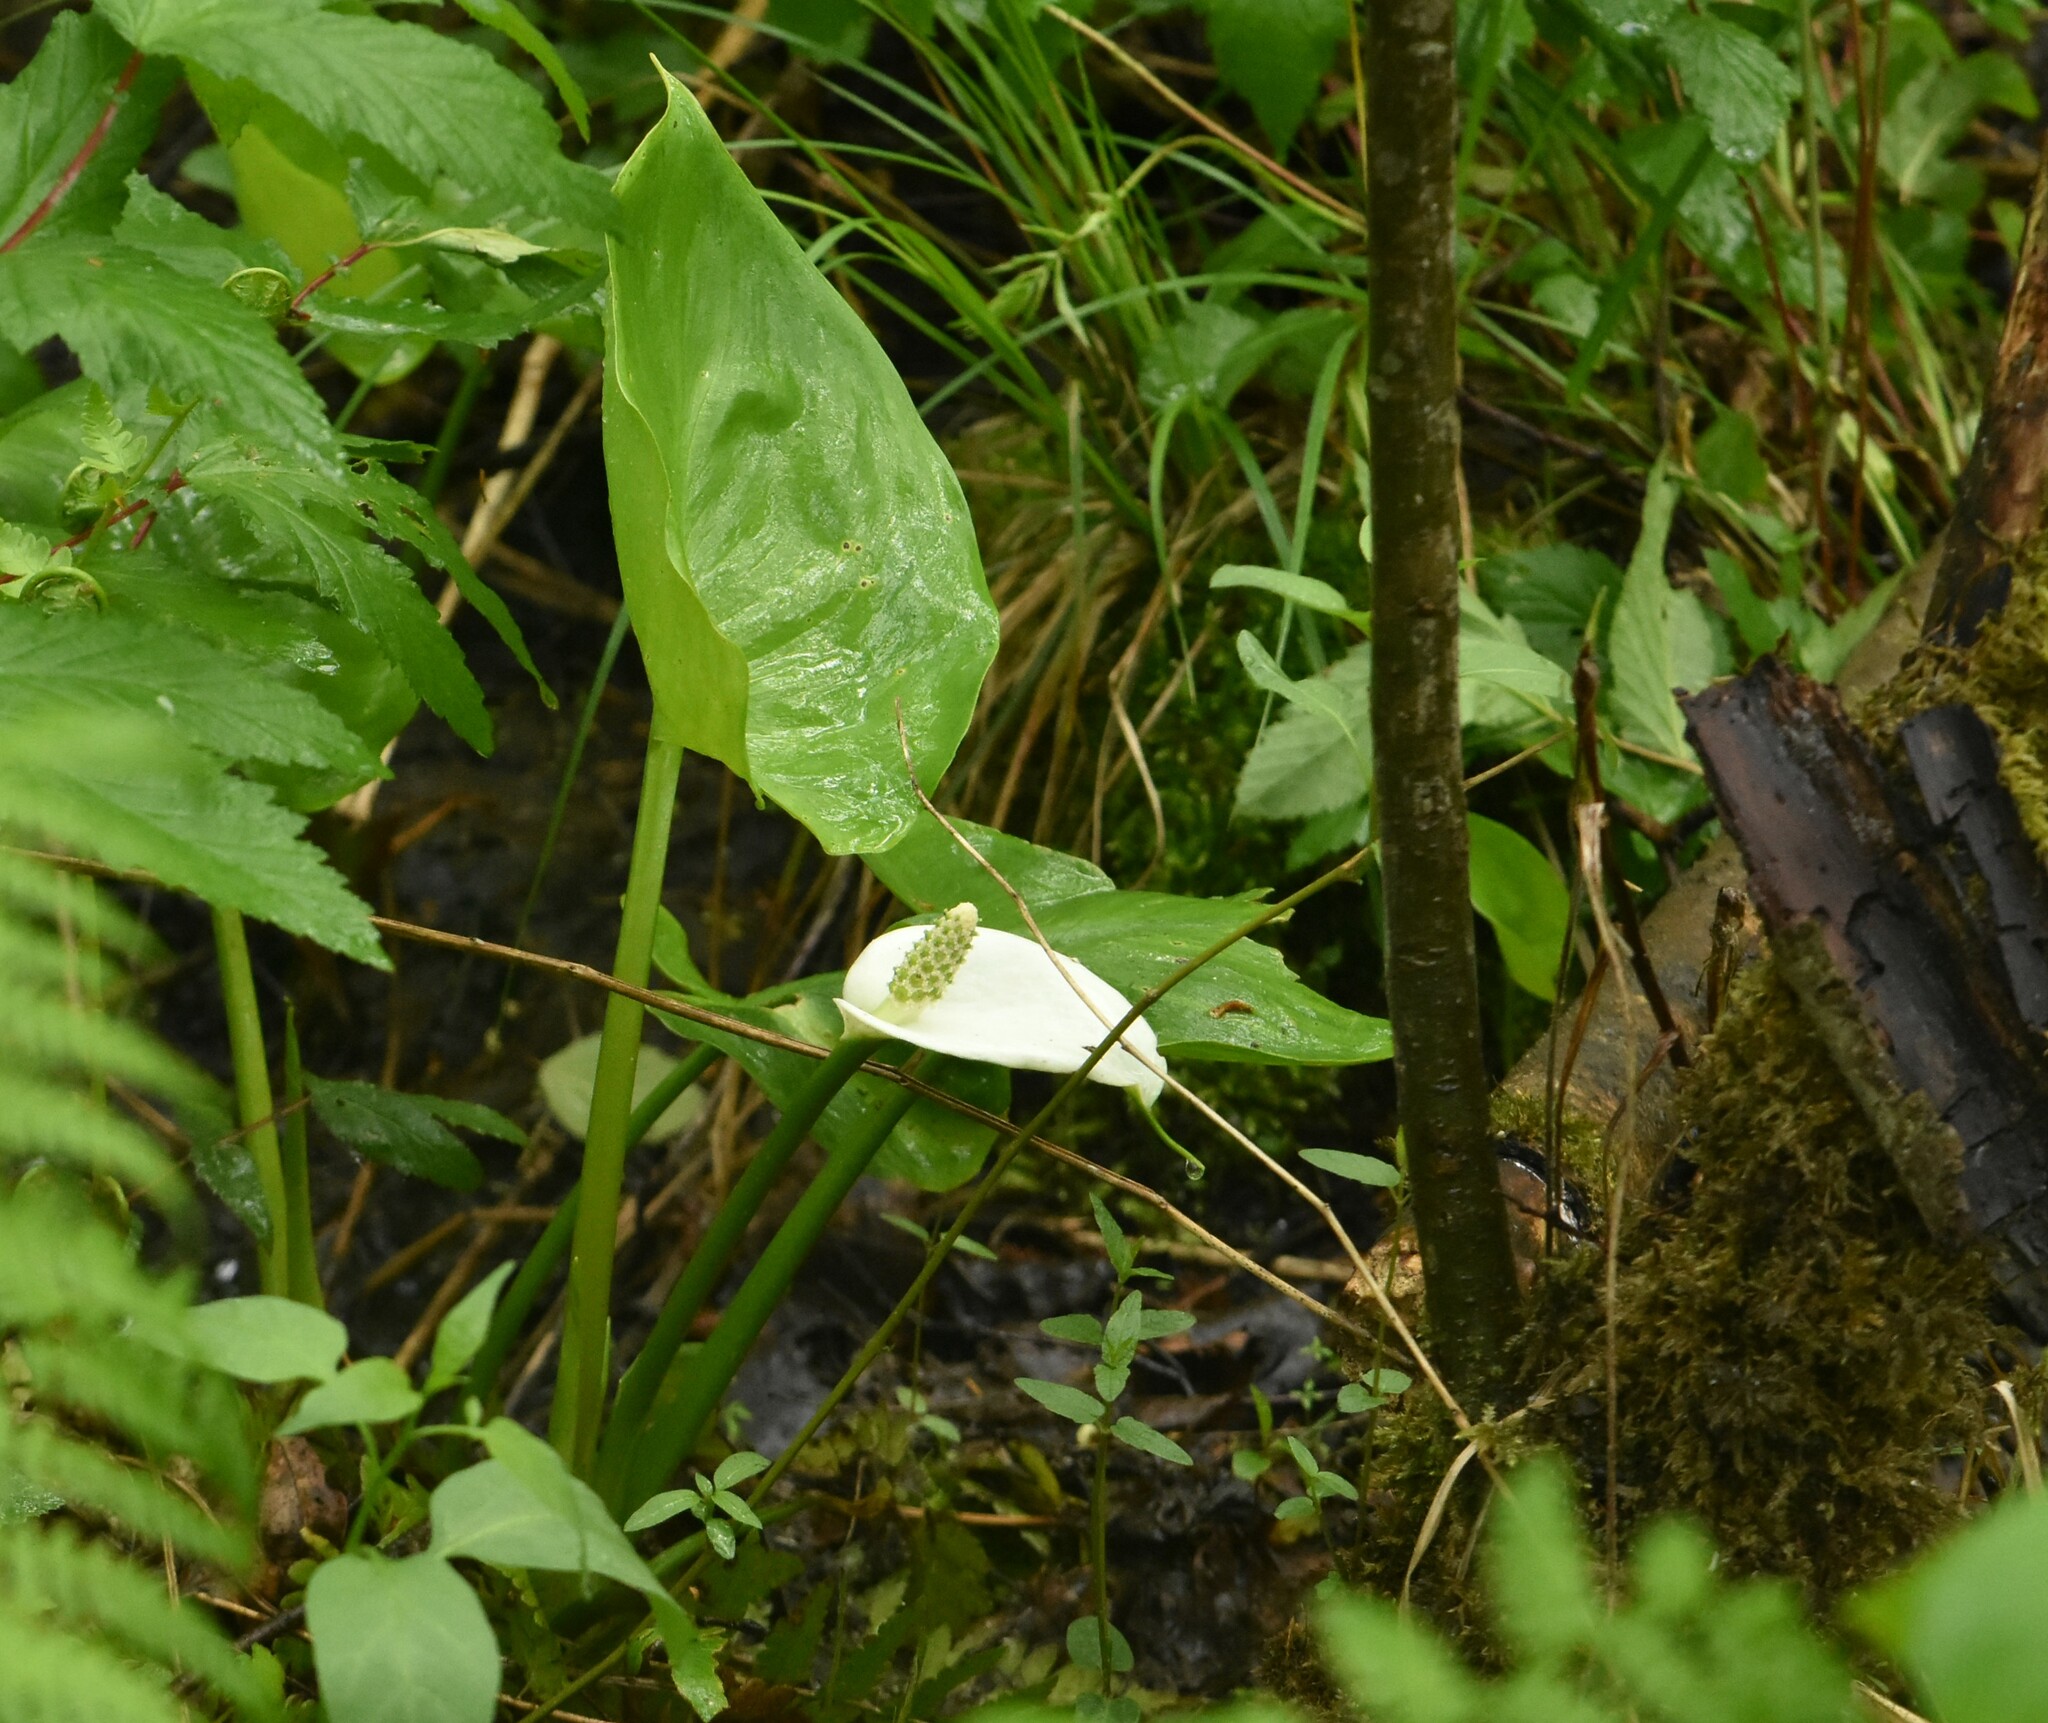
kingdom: Plantae
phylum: Tracheophyta
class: Liliopsida
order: Alismatales
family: Araceae
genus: Calla
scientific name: Calla palustris
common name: Bog arum
